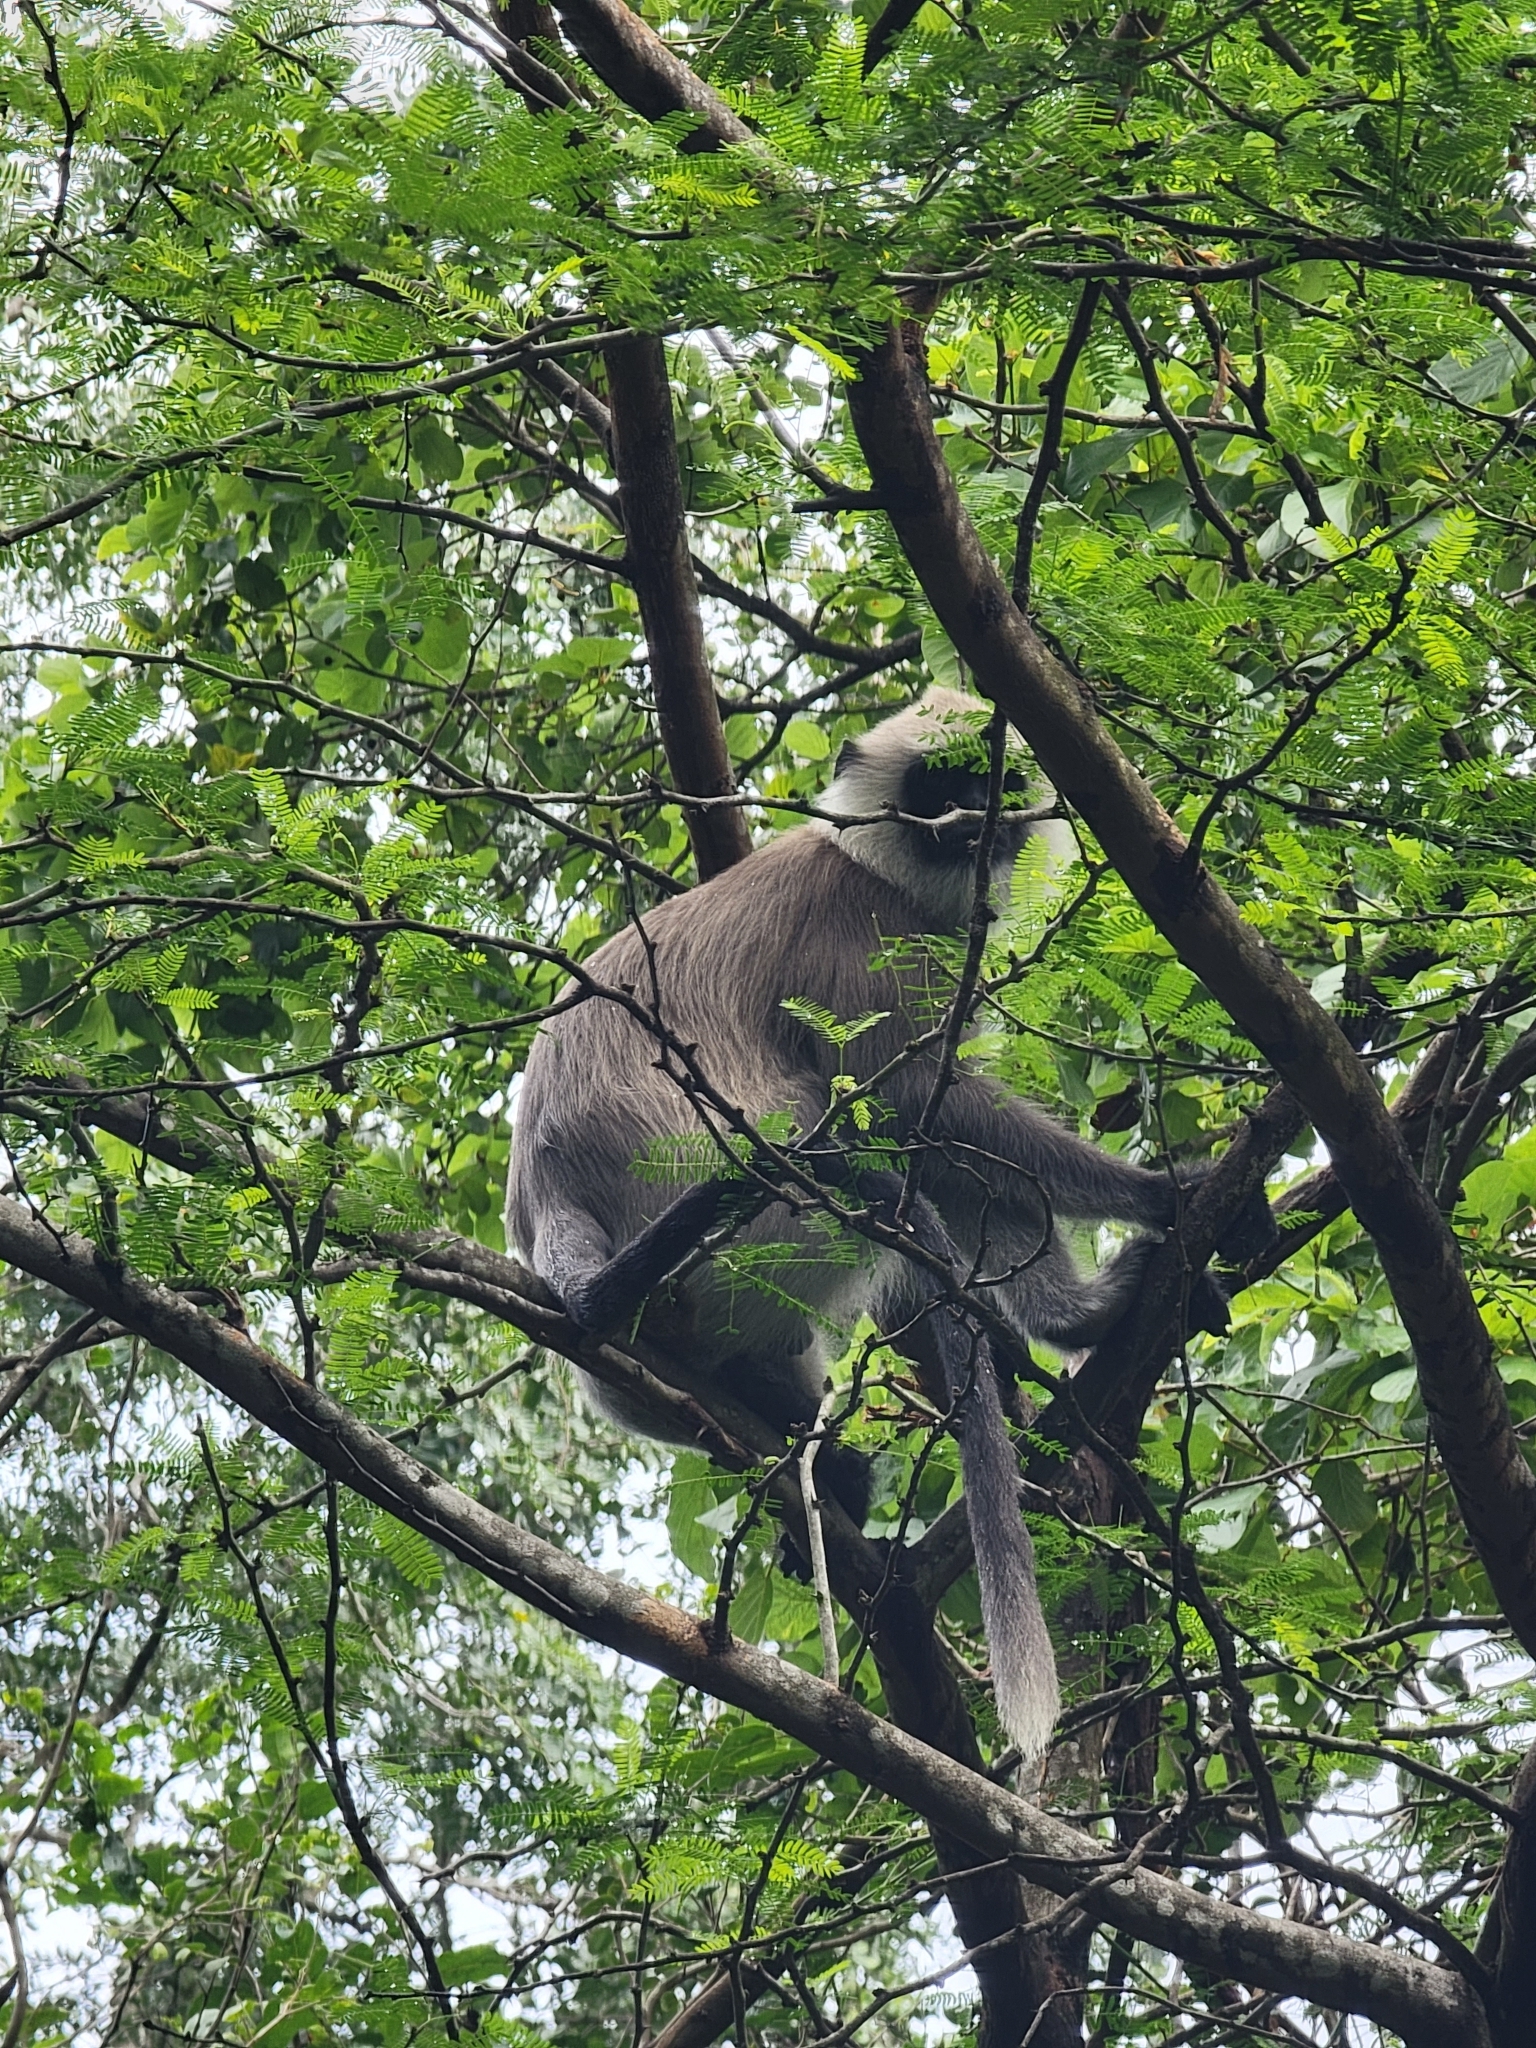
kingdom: Animalia
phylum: Chordata
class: Mammalia
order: Primates
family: Cercopithecidae
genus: Semnopithecus
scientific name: Semnopithecus priam
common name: Tufted gray langur
